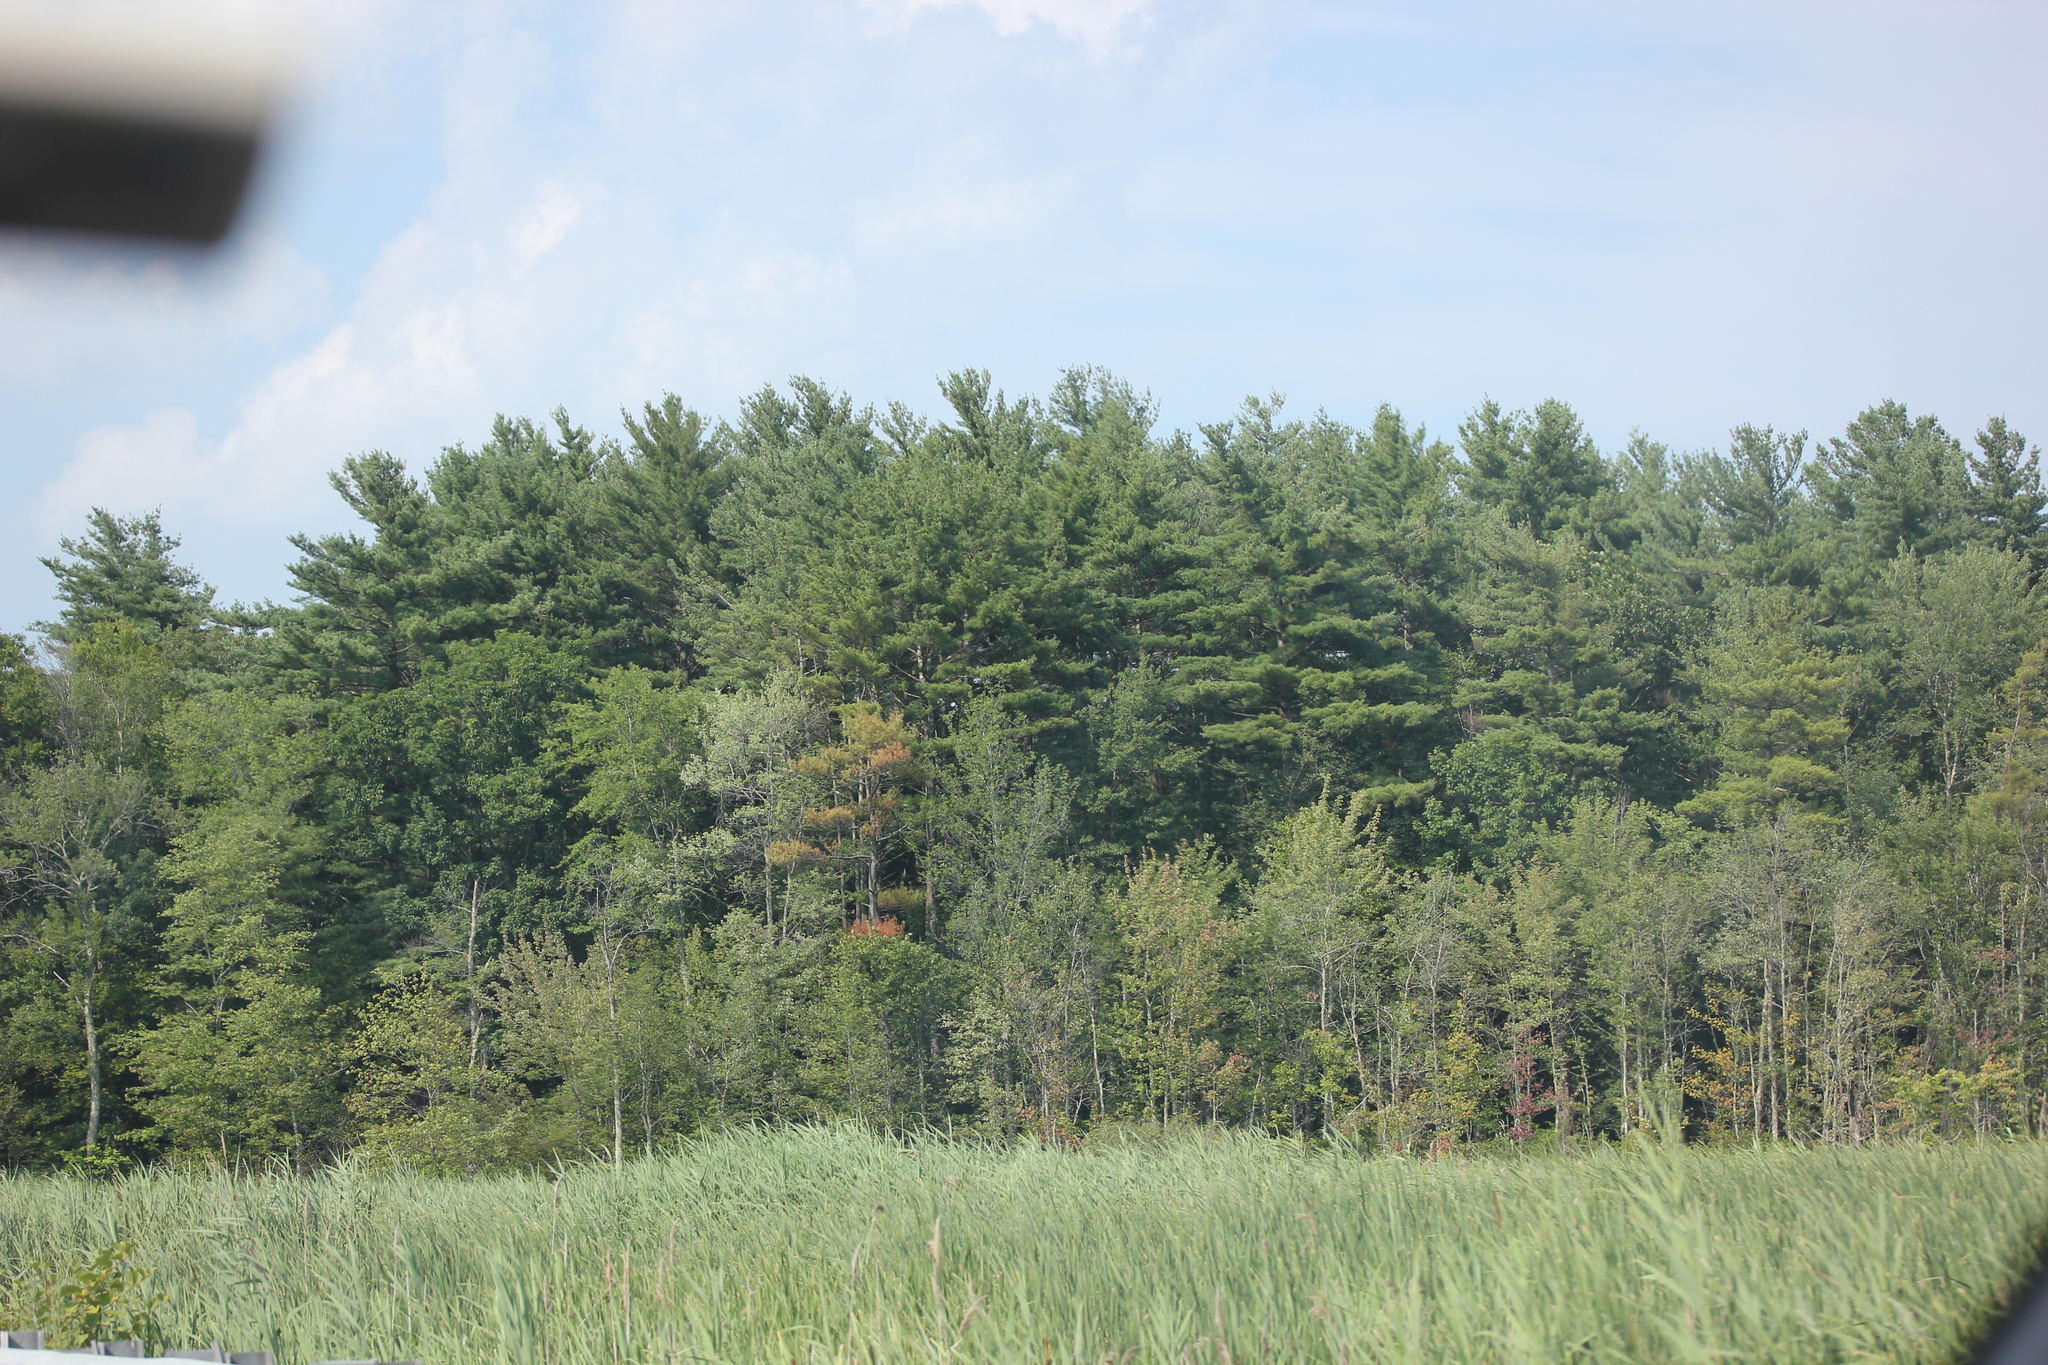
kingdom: Plantae
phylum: Tracheophyta
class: Pinopsida
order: Pinales
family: Pinaceae
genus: Pinus
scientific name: Pinus strobus
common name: Weymouth pine
